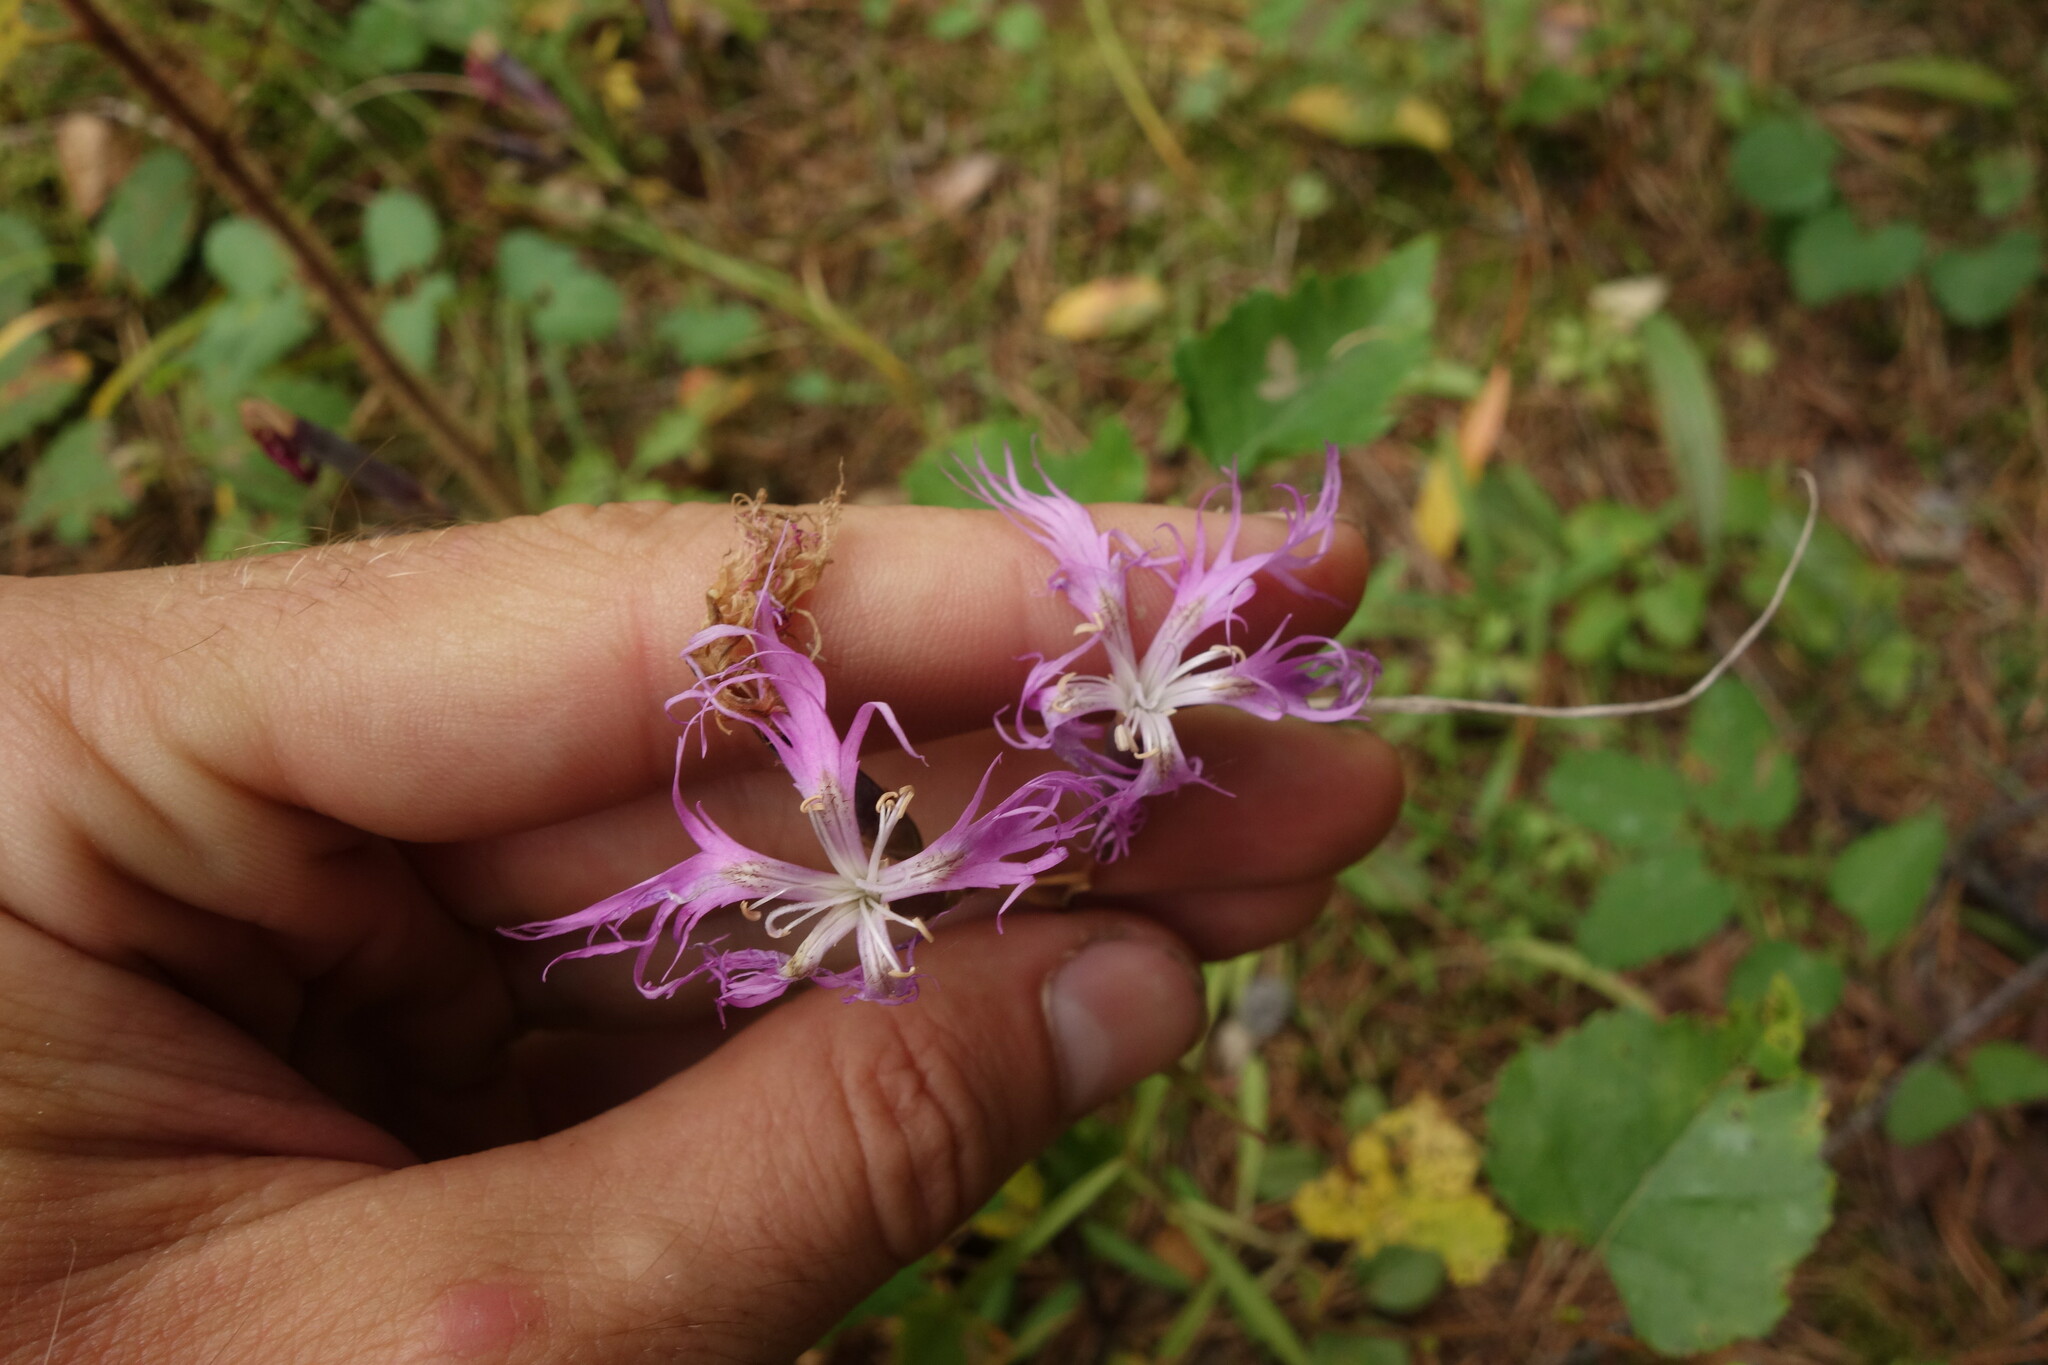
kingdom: Plantae
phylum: Tracheophyta
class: Magnoliopsida
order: Caryophyllales
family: Caryophyllaceae
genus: Dianthus
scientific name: Dianthus superbus
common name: Fringed pink
